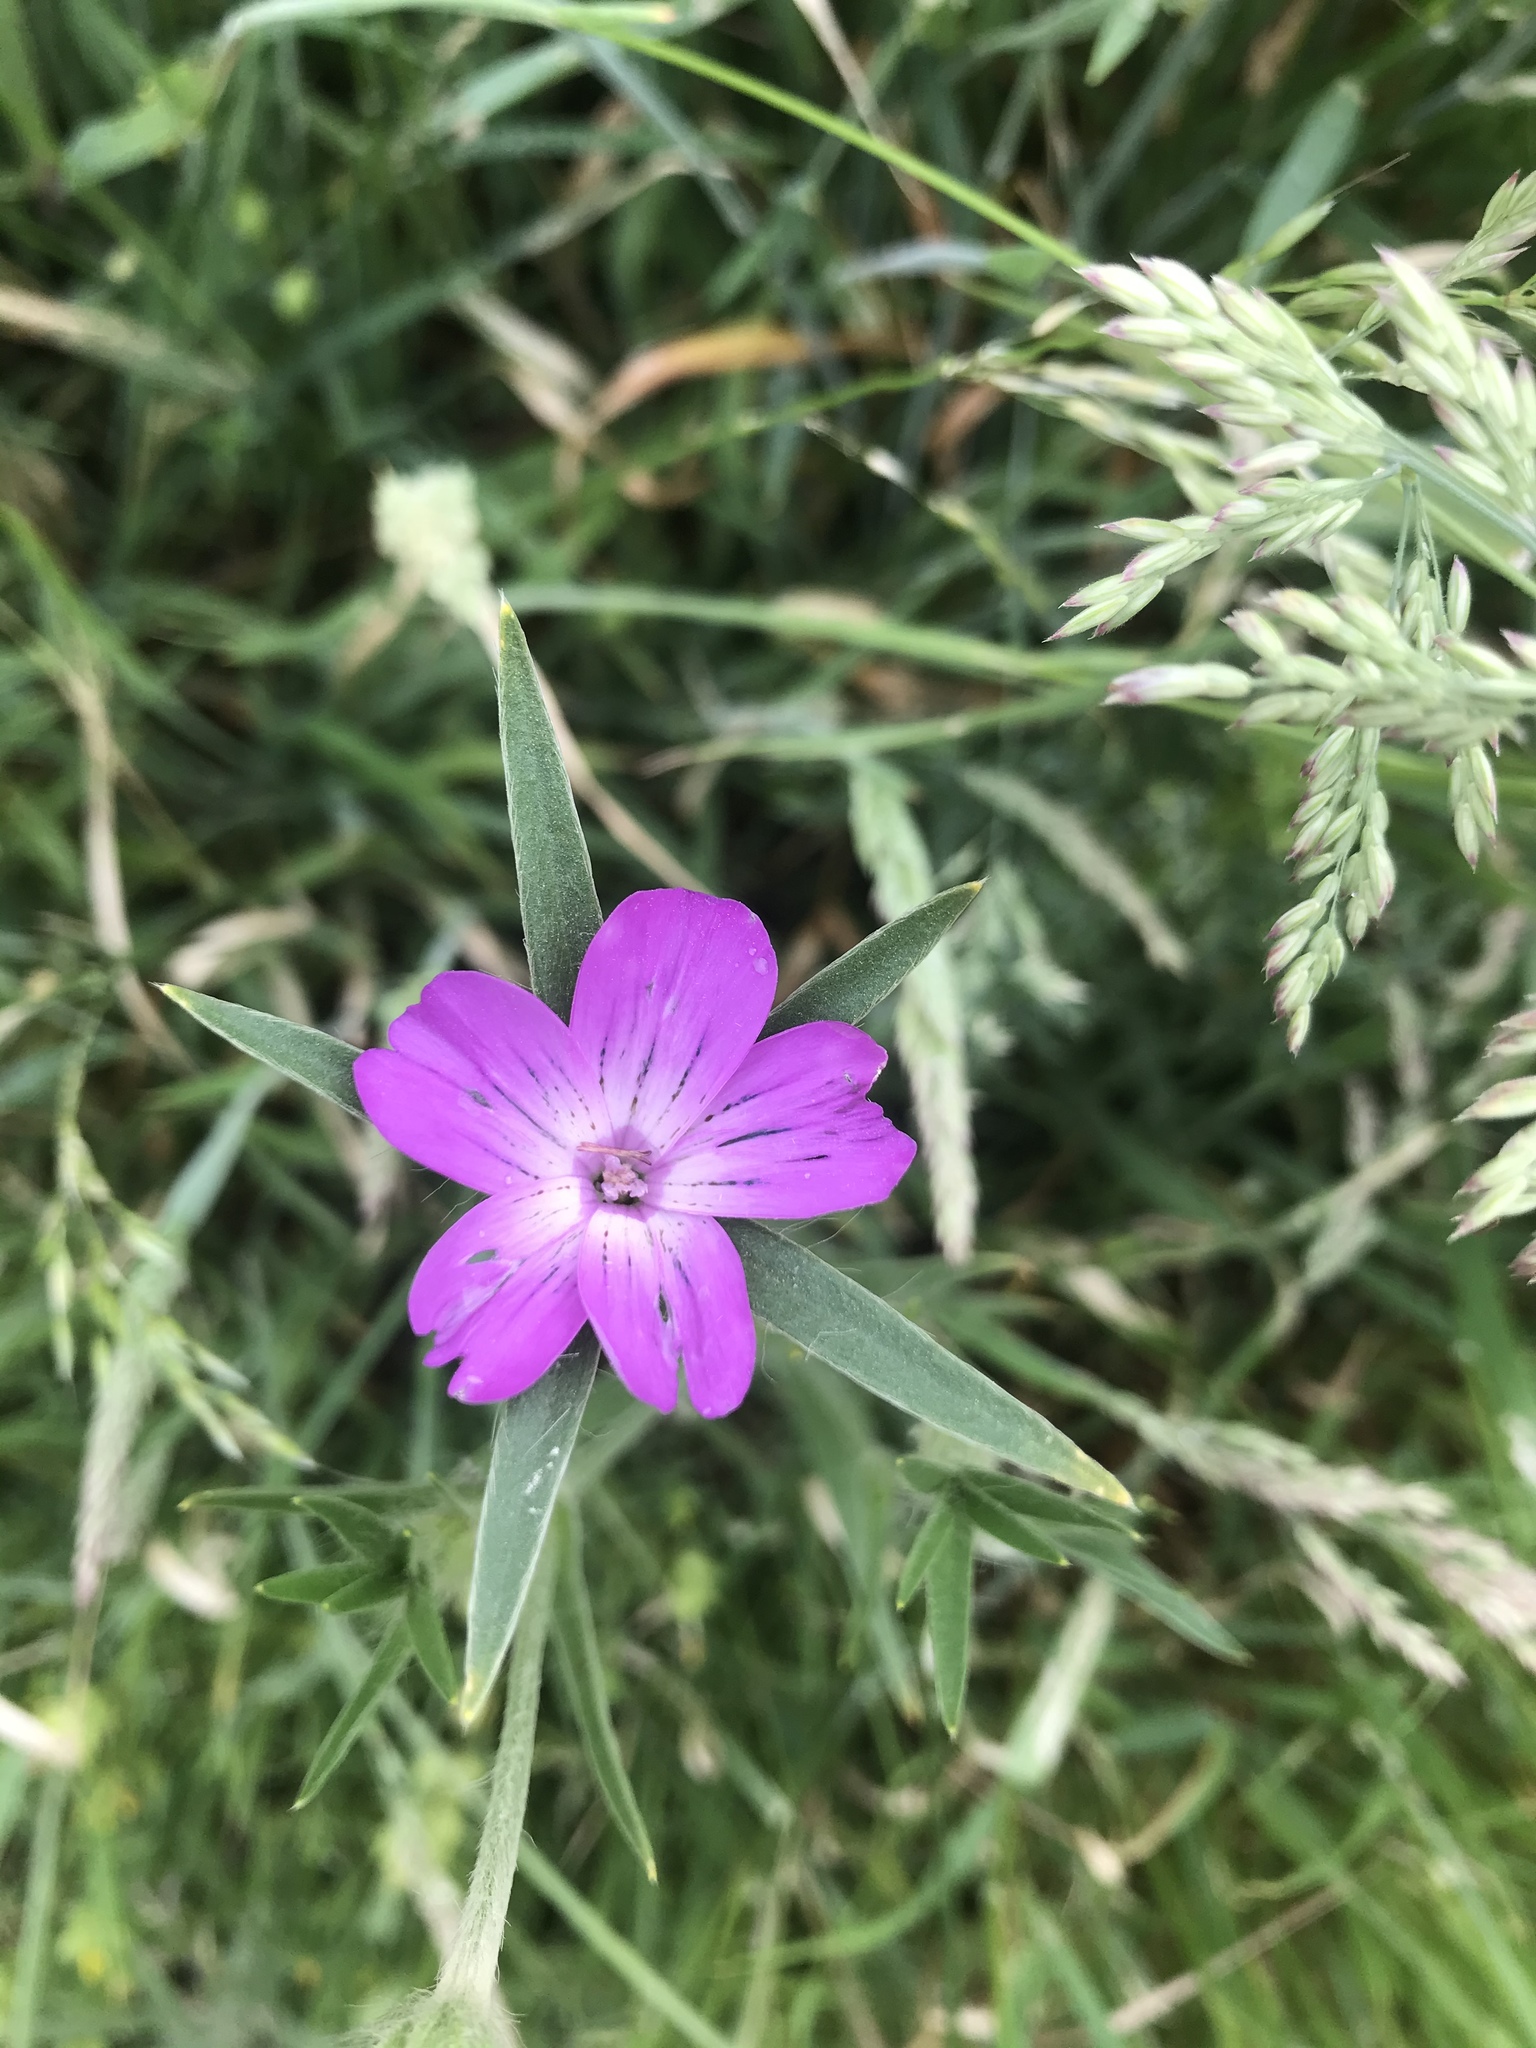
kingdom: Plantae
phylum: Tracheophyta
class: Magnoliopsida
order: Caryophyllales
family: Caryophyllaceae
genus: Agrostemma
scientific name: Agrostemma githago
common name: Common corncockle
